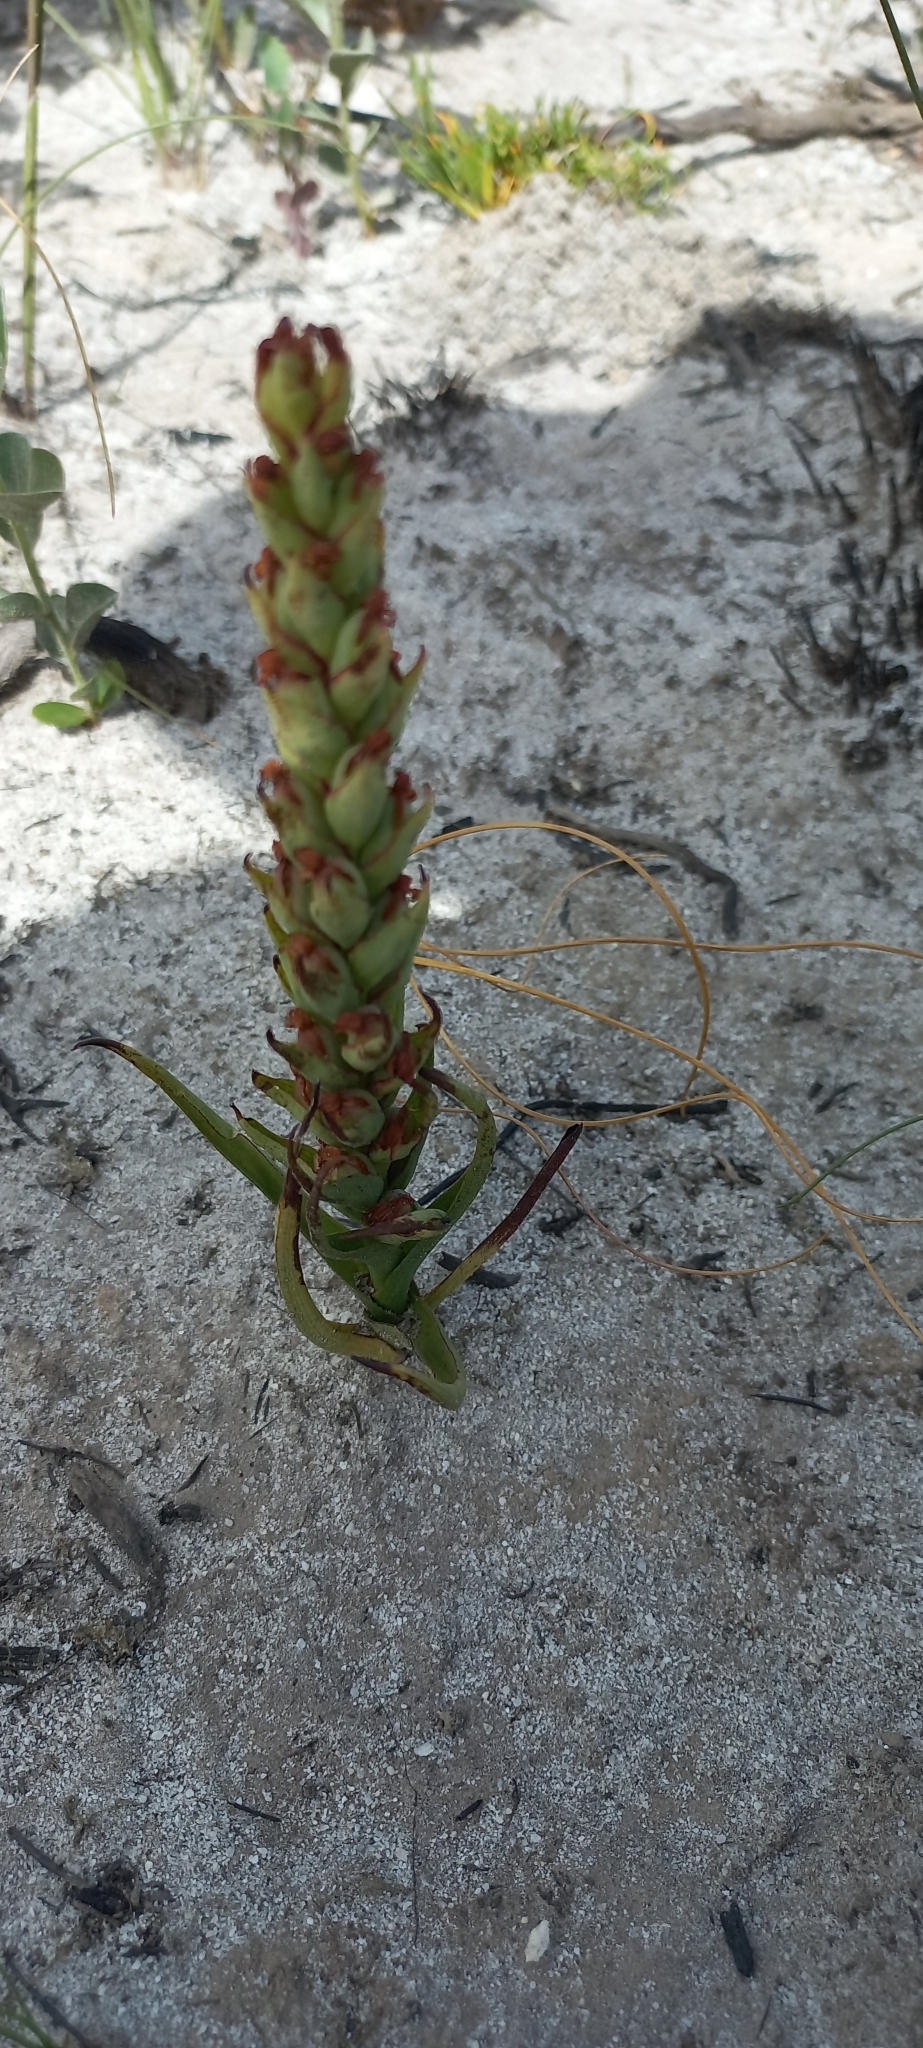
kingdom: Plantae
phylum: Tracheophyta
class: Liliopsida
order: Asparagales
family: Orchidaceae
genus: Disa
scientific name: Disa bracteata
